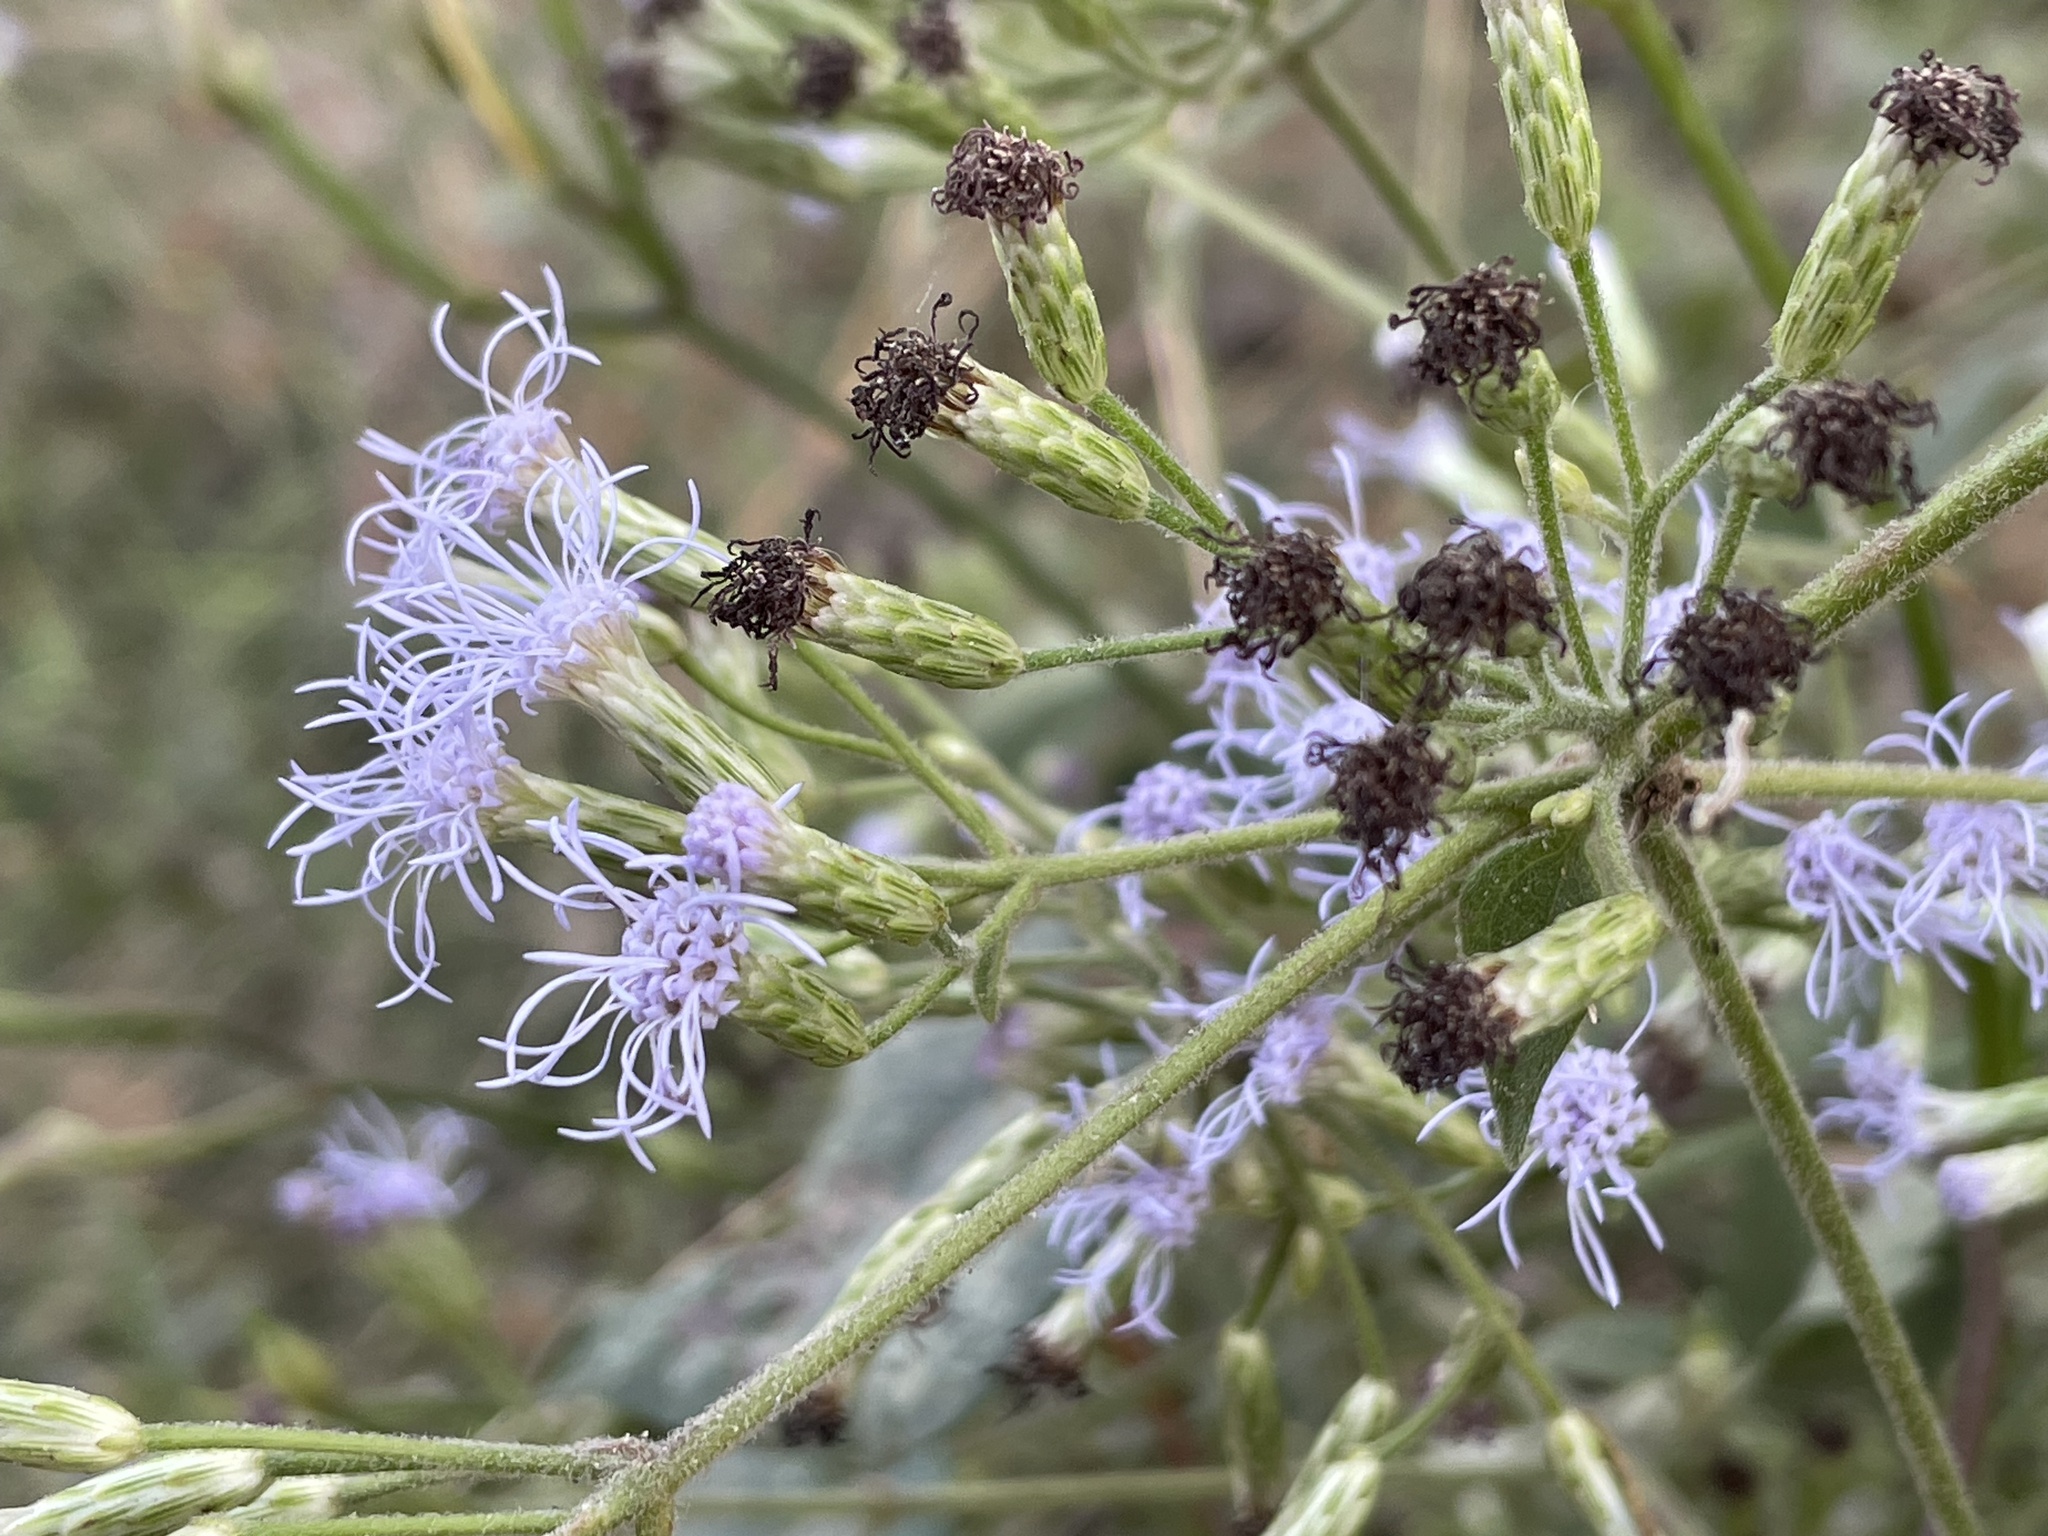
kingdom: Plantae
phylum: Tracheophyta
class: Magnoliopsida
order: Asterales
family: Asteraceae
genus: Chromolaena
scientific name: Chromolaena odorata
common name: Siamweed
